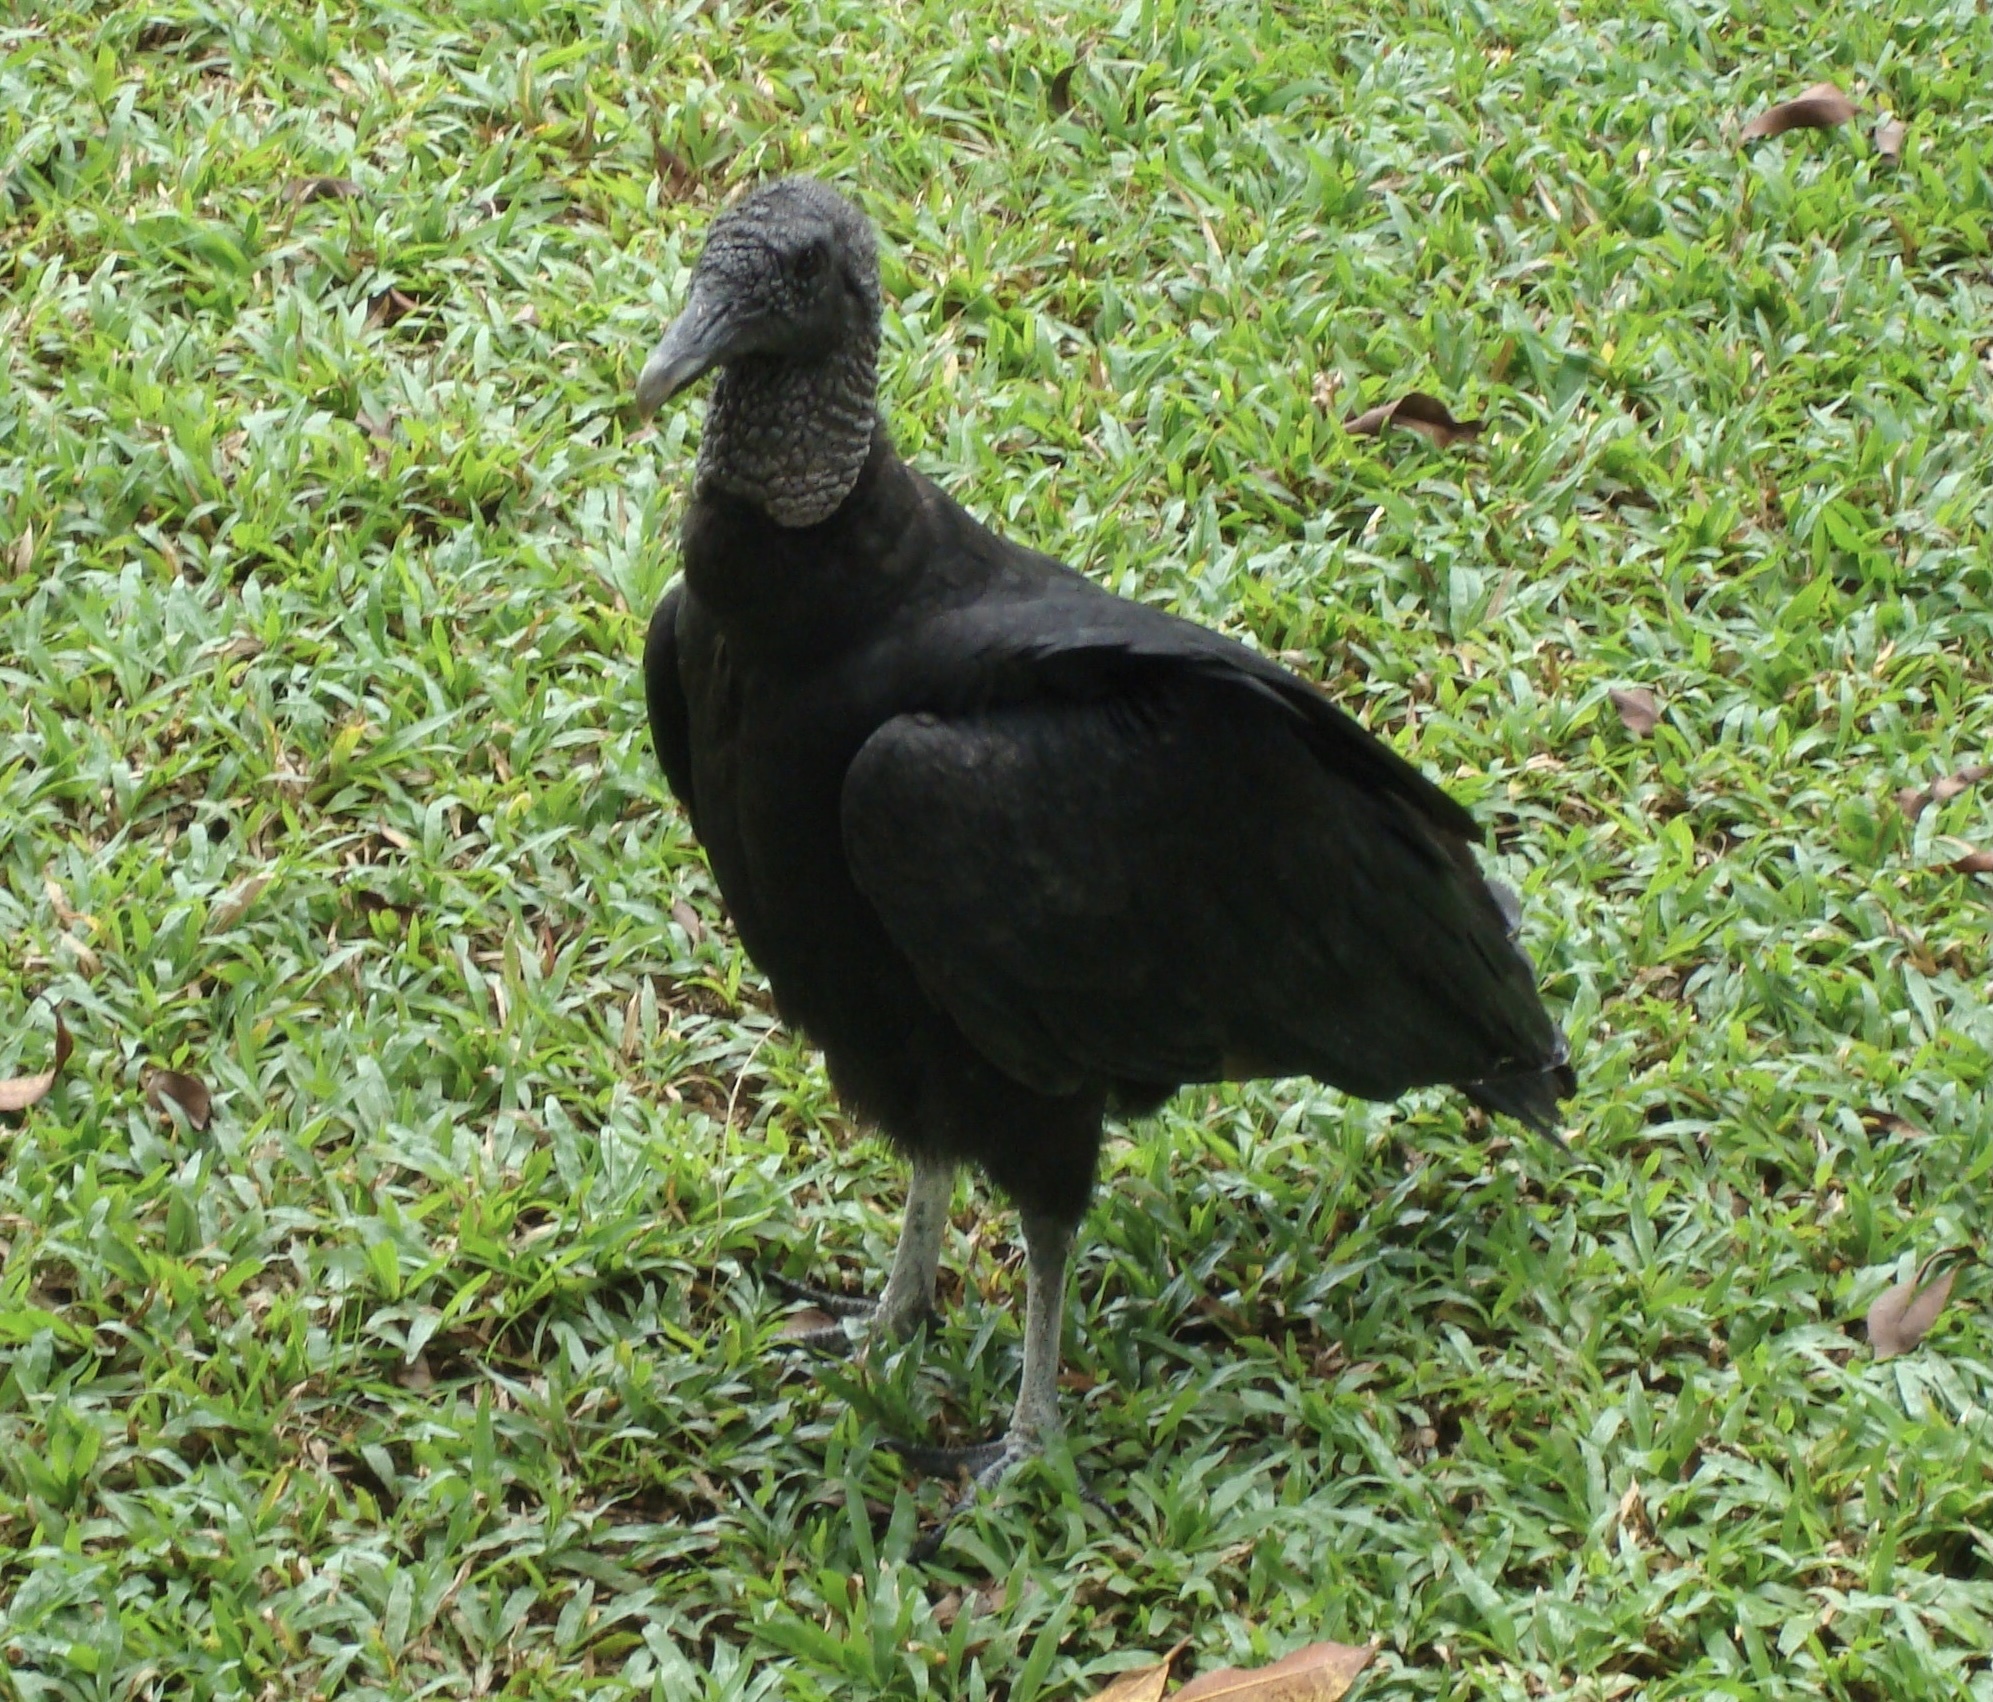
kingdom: Animalia
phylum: Chordata
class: Aves
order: Accipitriformes
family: Cathartidae
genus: Coragyps
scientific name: Coragyps atratus
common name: Black vulture
